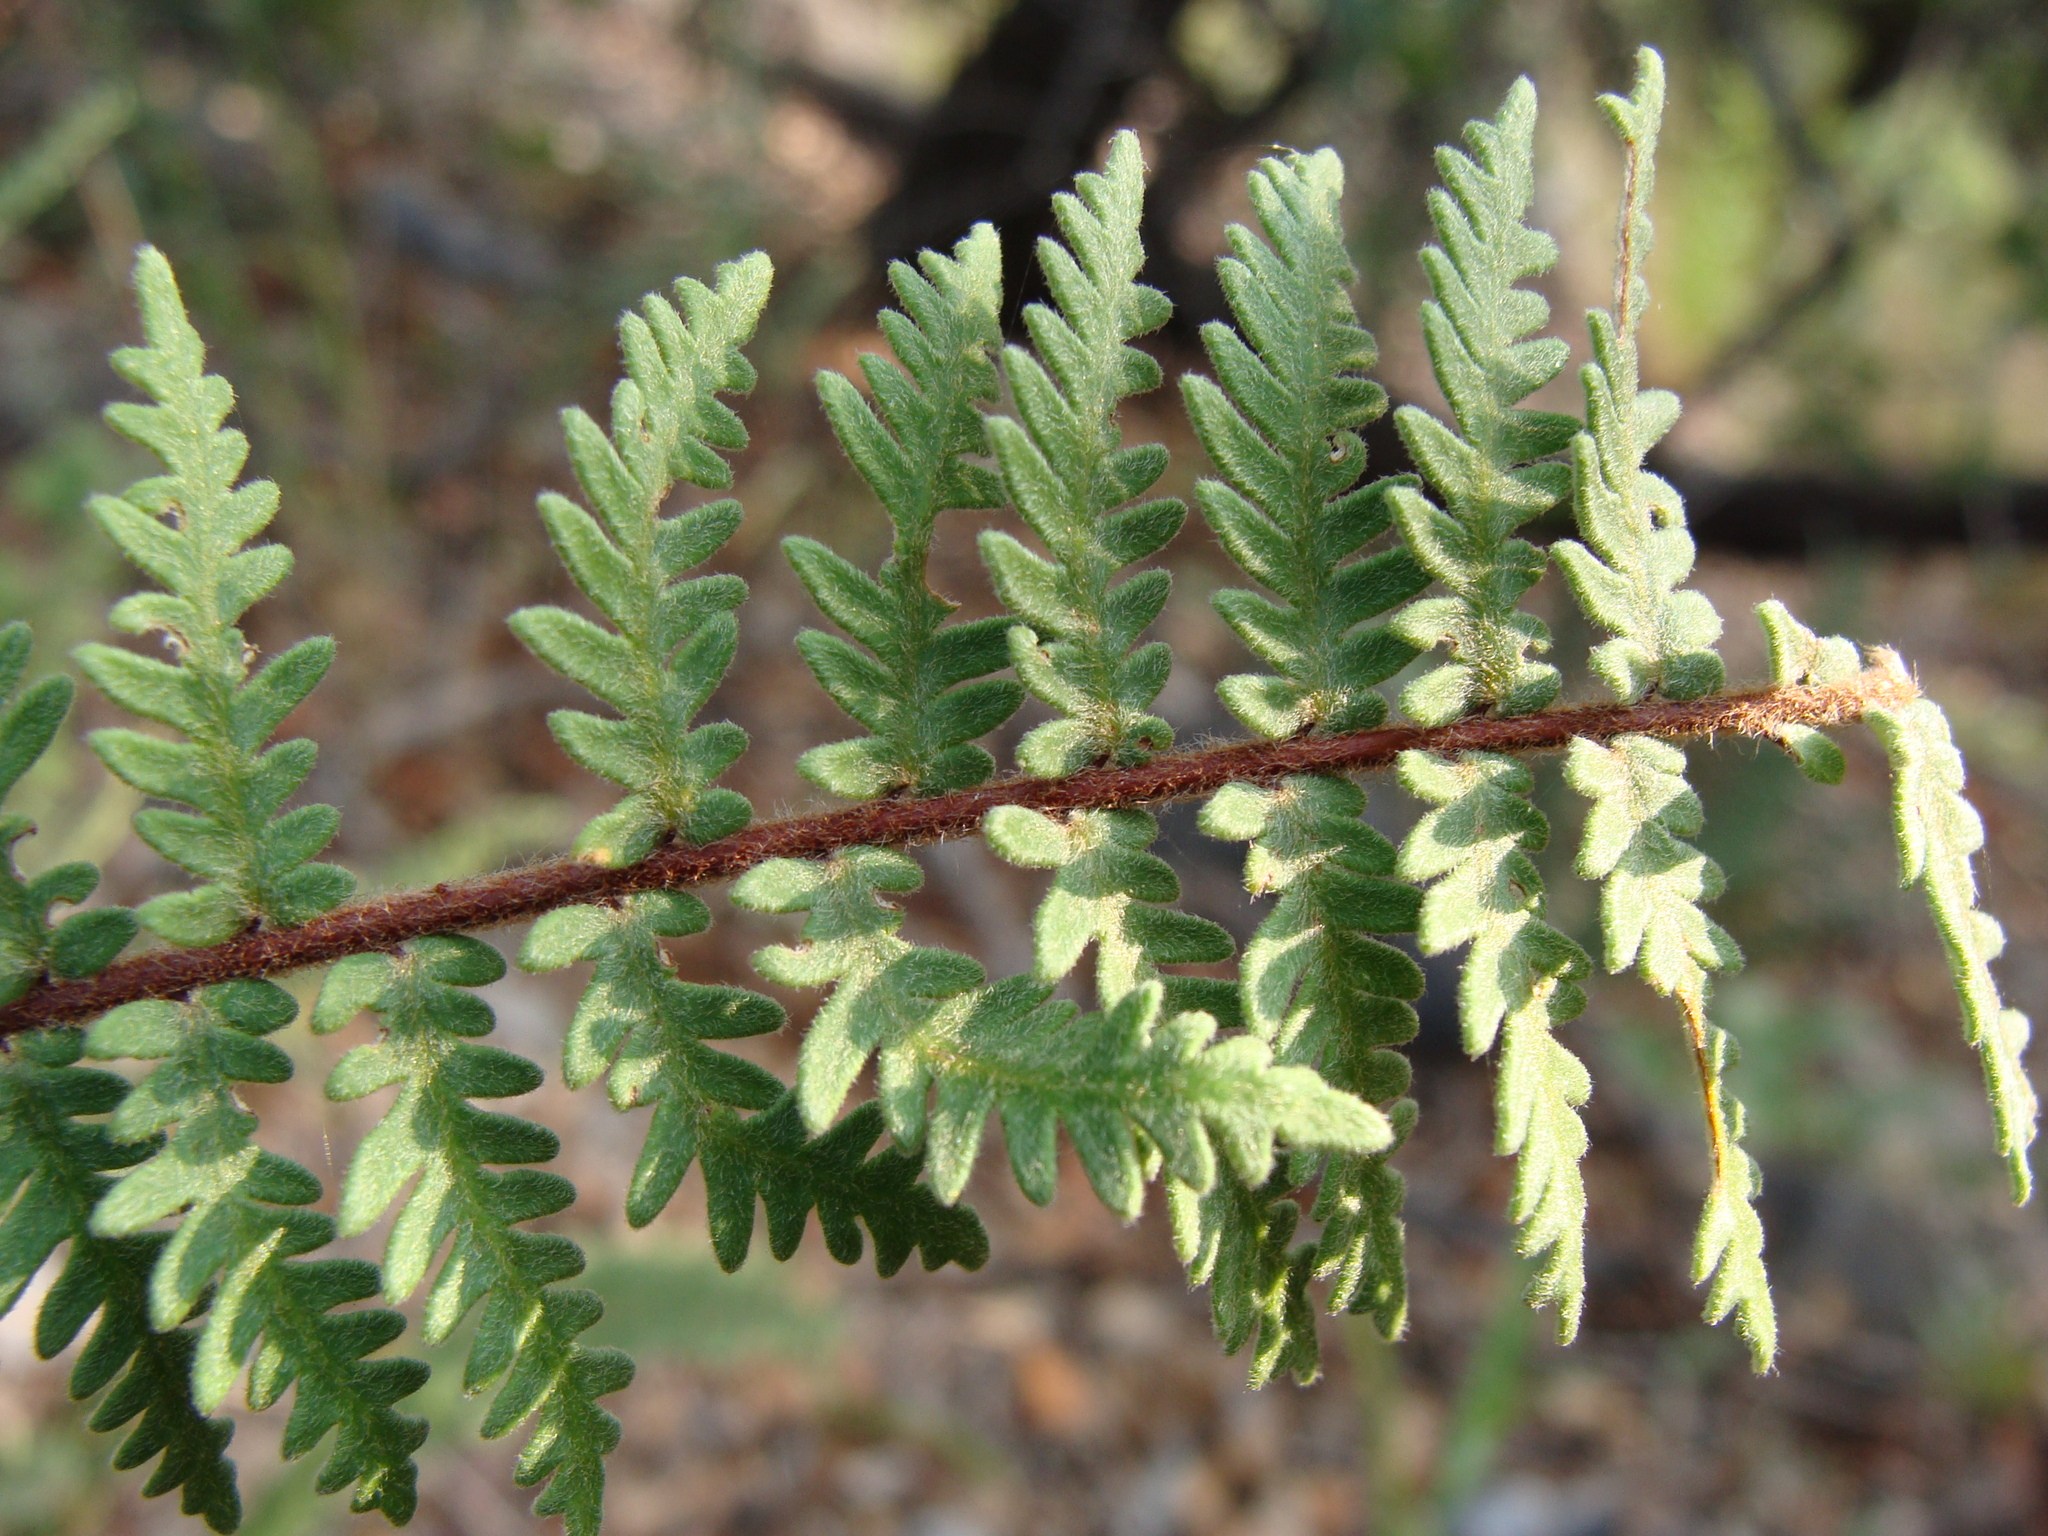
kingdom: Plantae
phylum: Tracheophyta
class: Polypodiopsida
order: Polypodiales
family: Pteridaceae
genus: Myriopteris
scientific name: Myriopteris aurea
